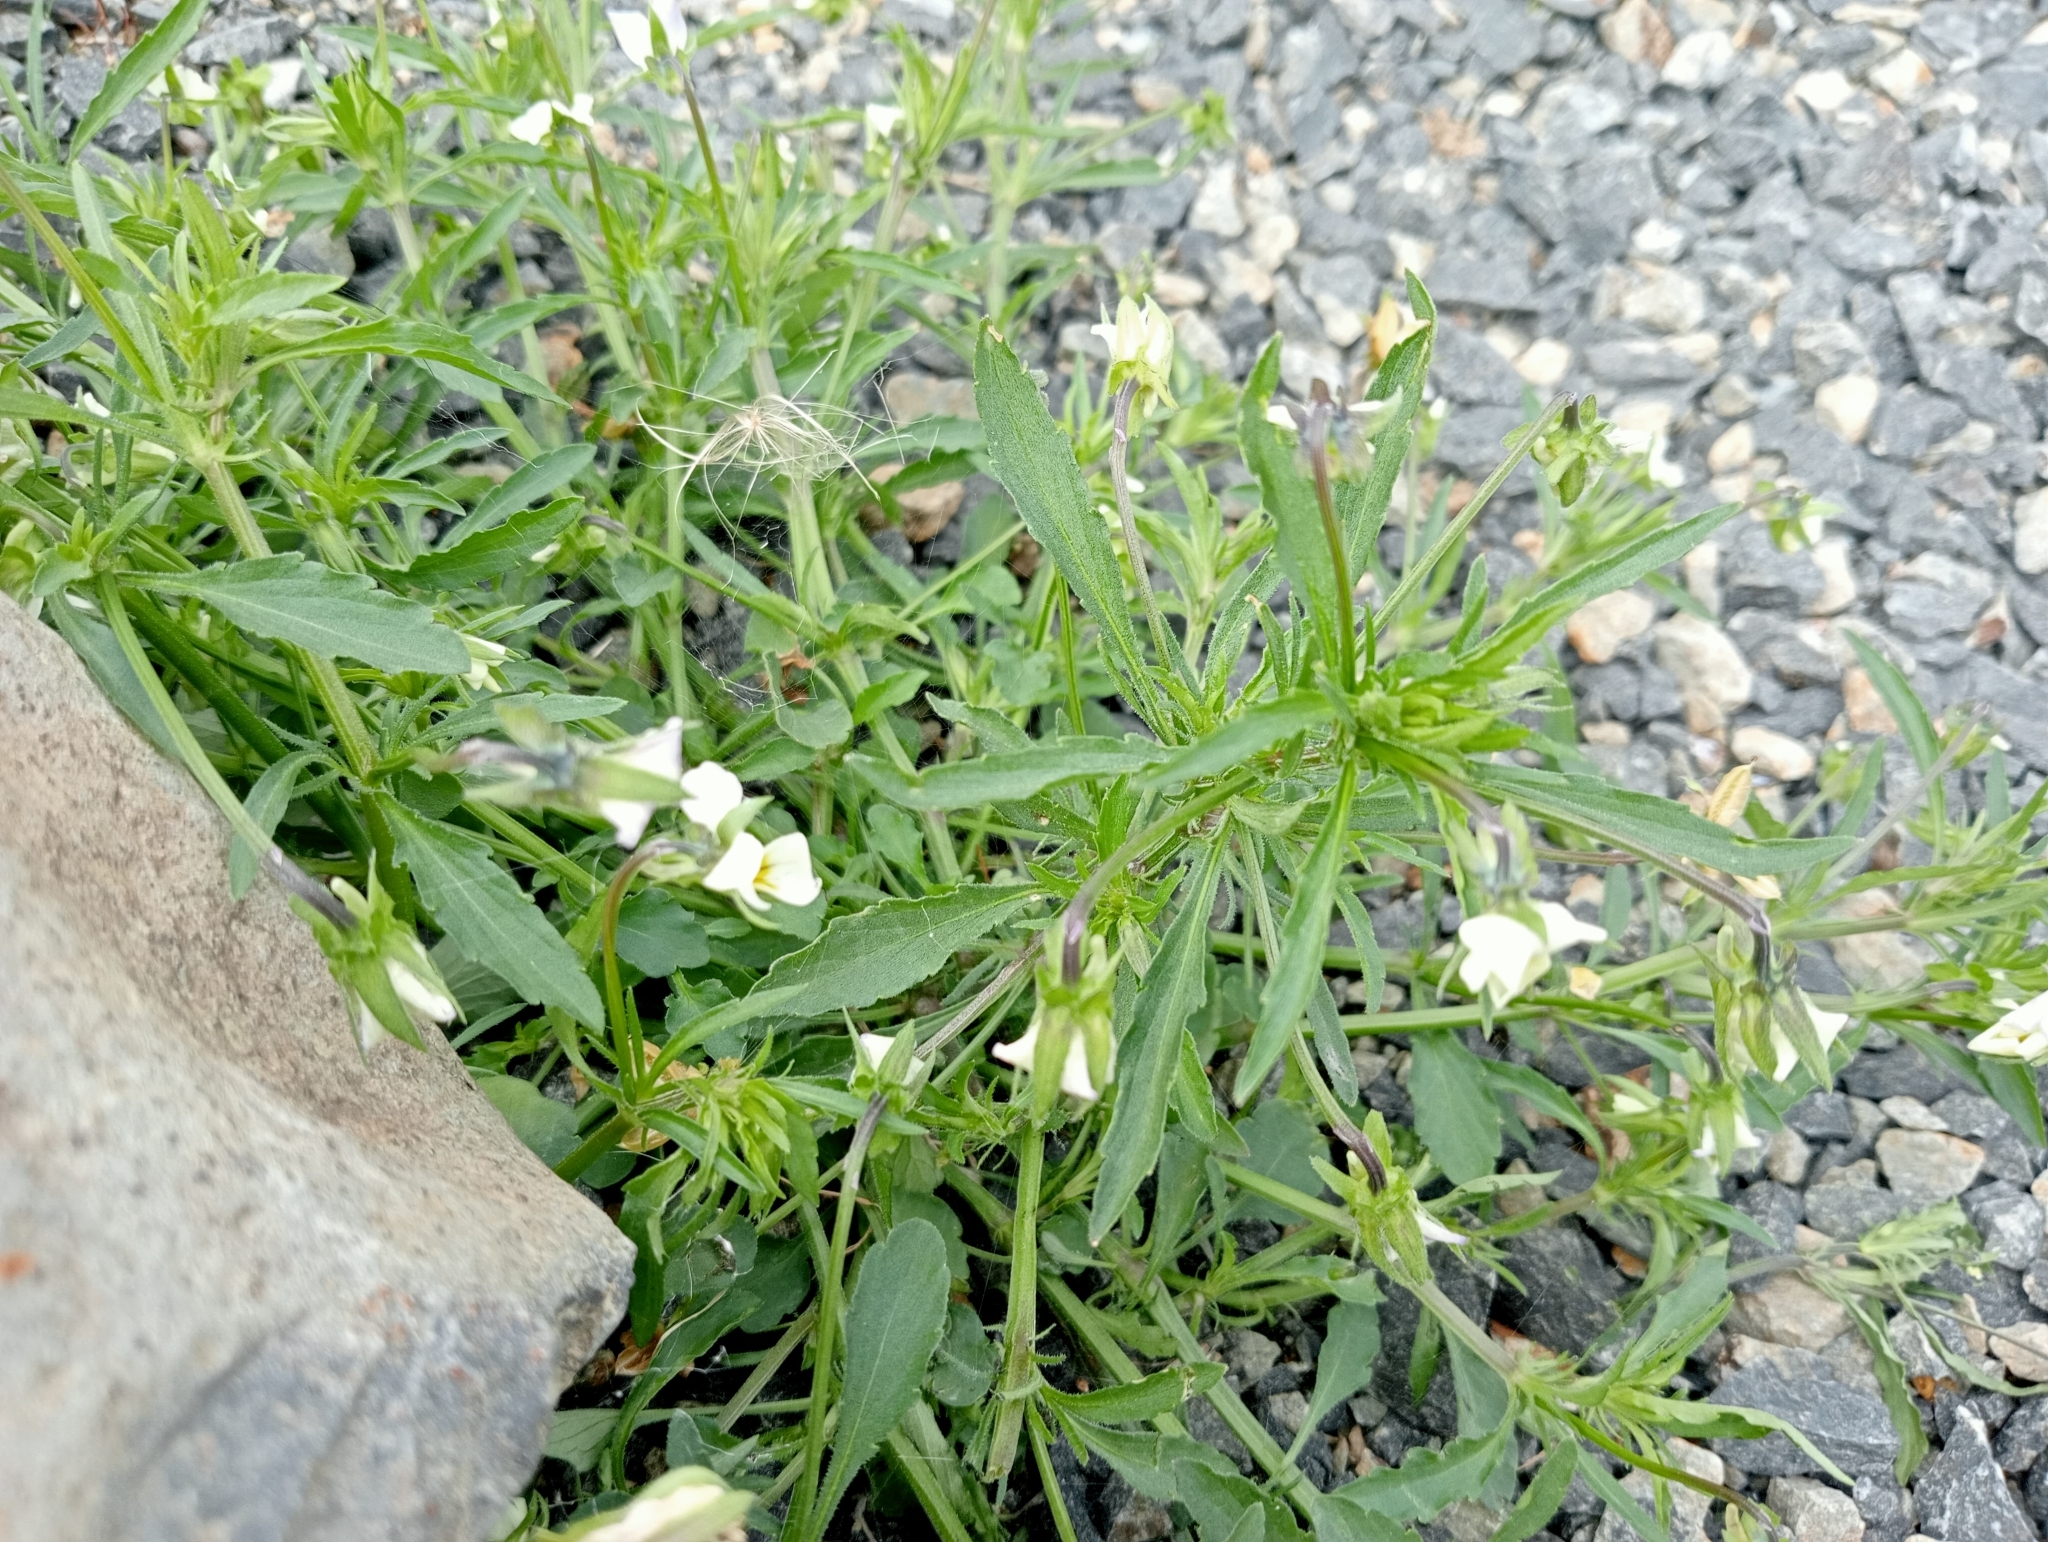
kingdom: Plantae
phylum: Tracheophyta
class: Magnoliopsida
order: Malpighiales
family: Violaceae
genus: Viola
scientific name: Viola arvensis
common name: Field pansy
